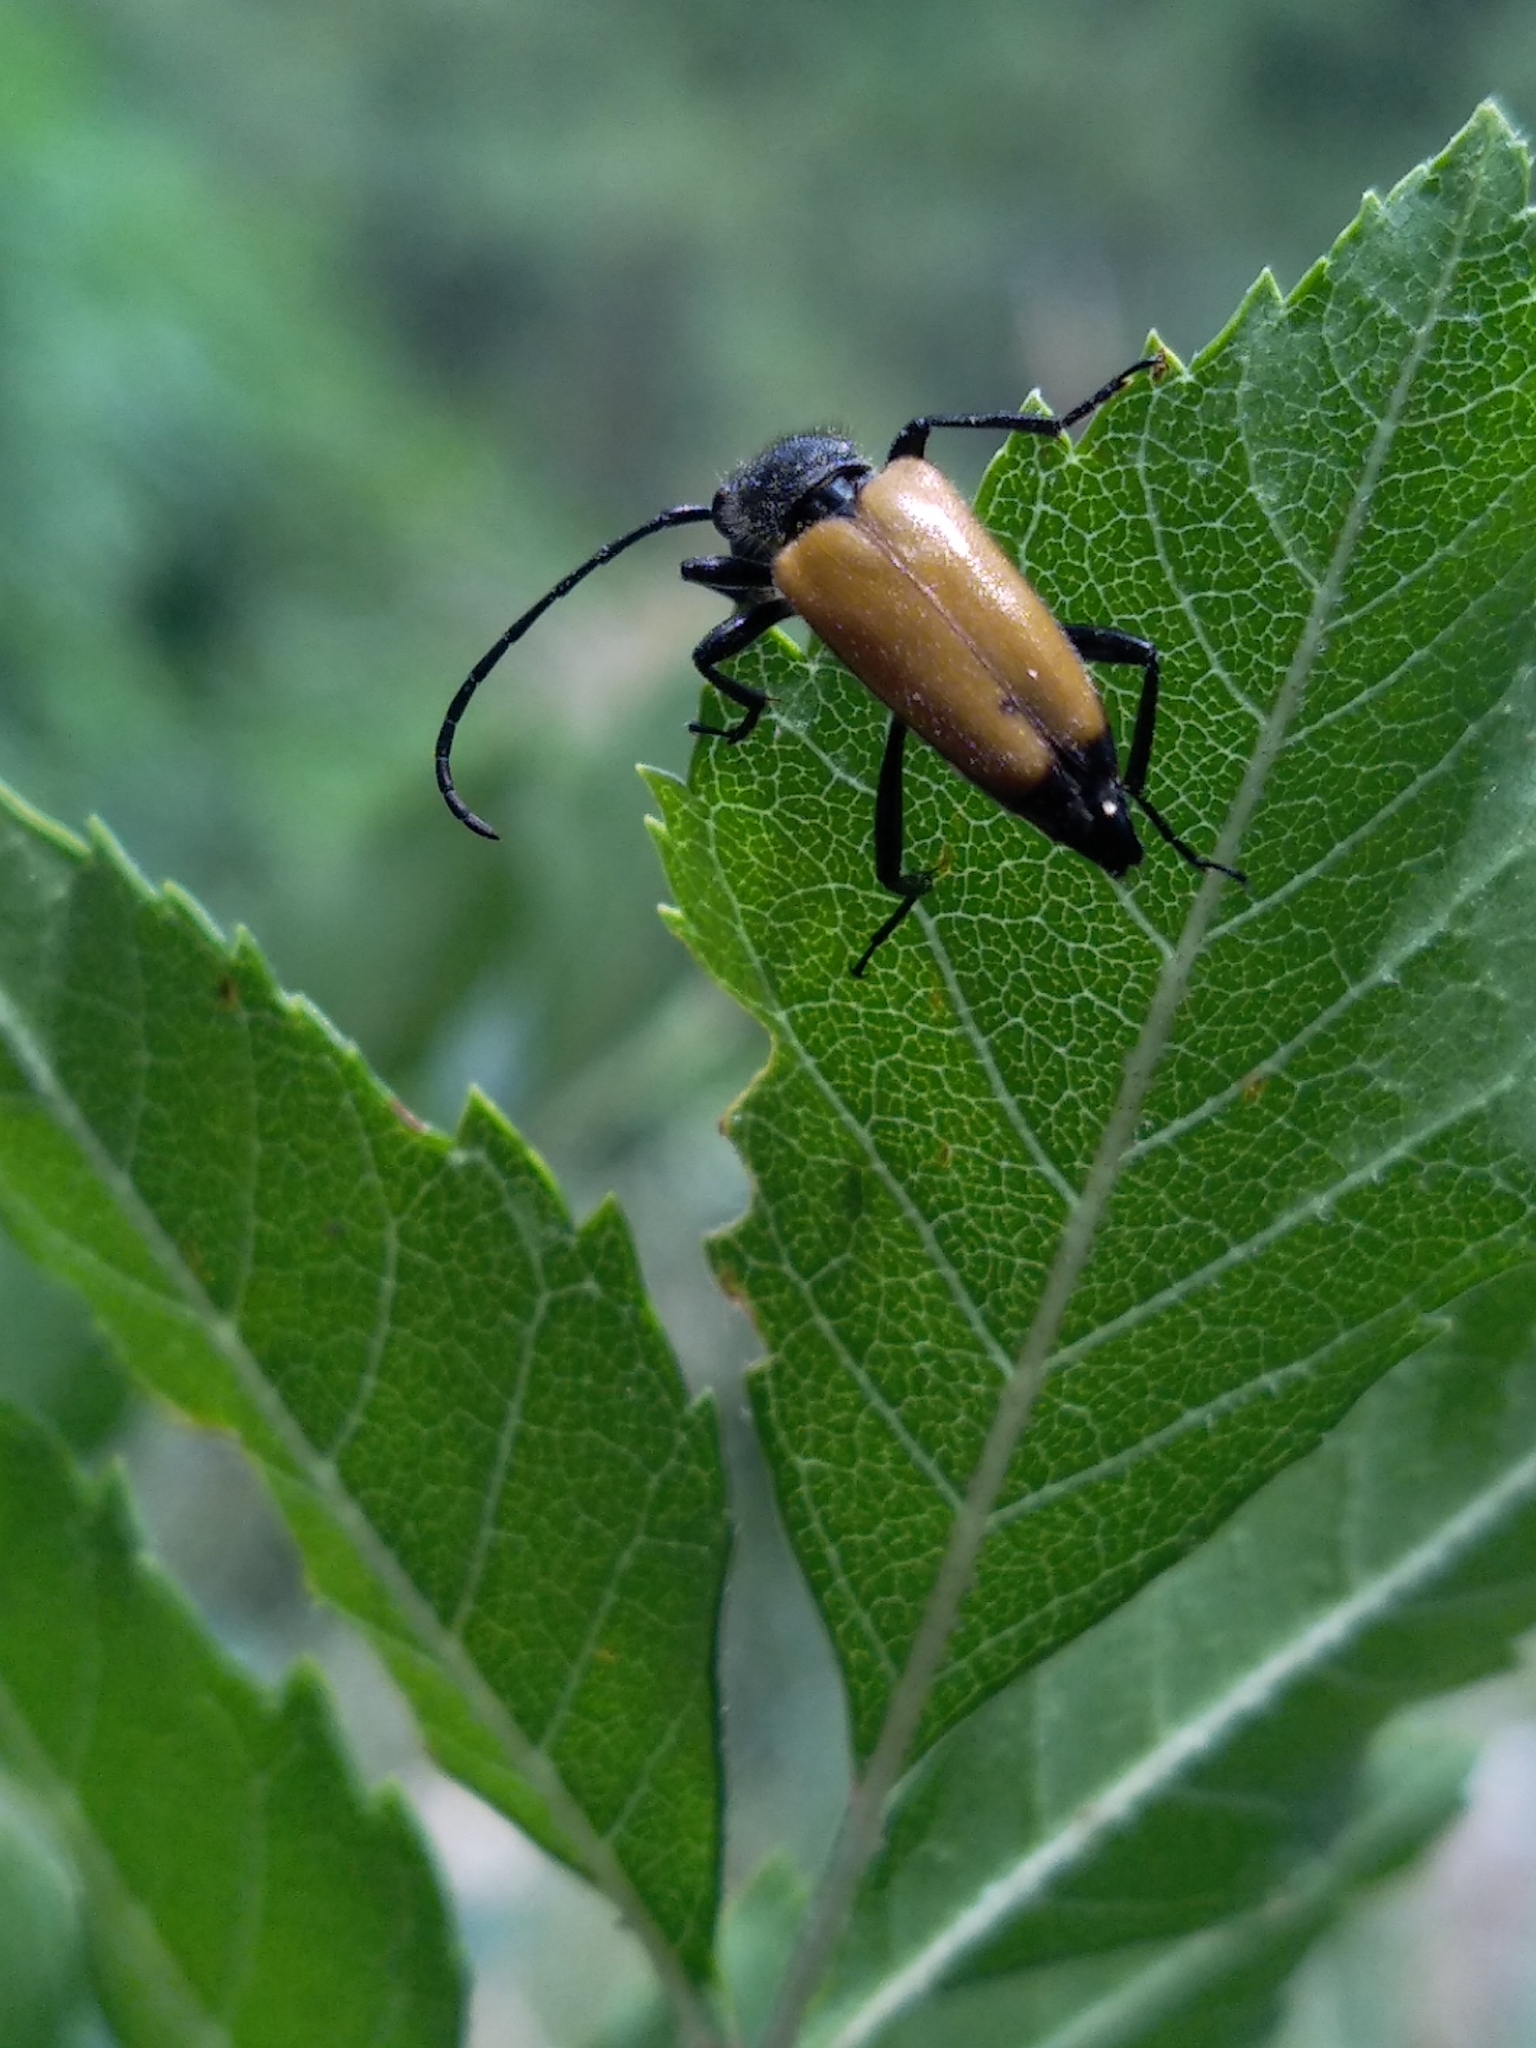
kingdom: Animalia
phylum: Arthropoda
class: Insecta
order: Coleoptera
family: Cerambycidae
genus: Paracorymbia
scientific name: Paracorymbia fulva
